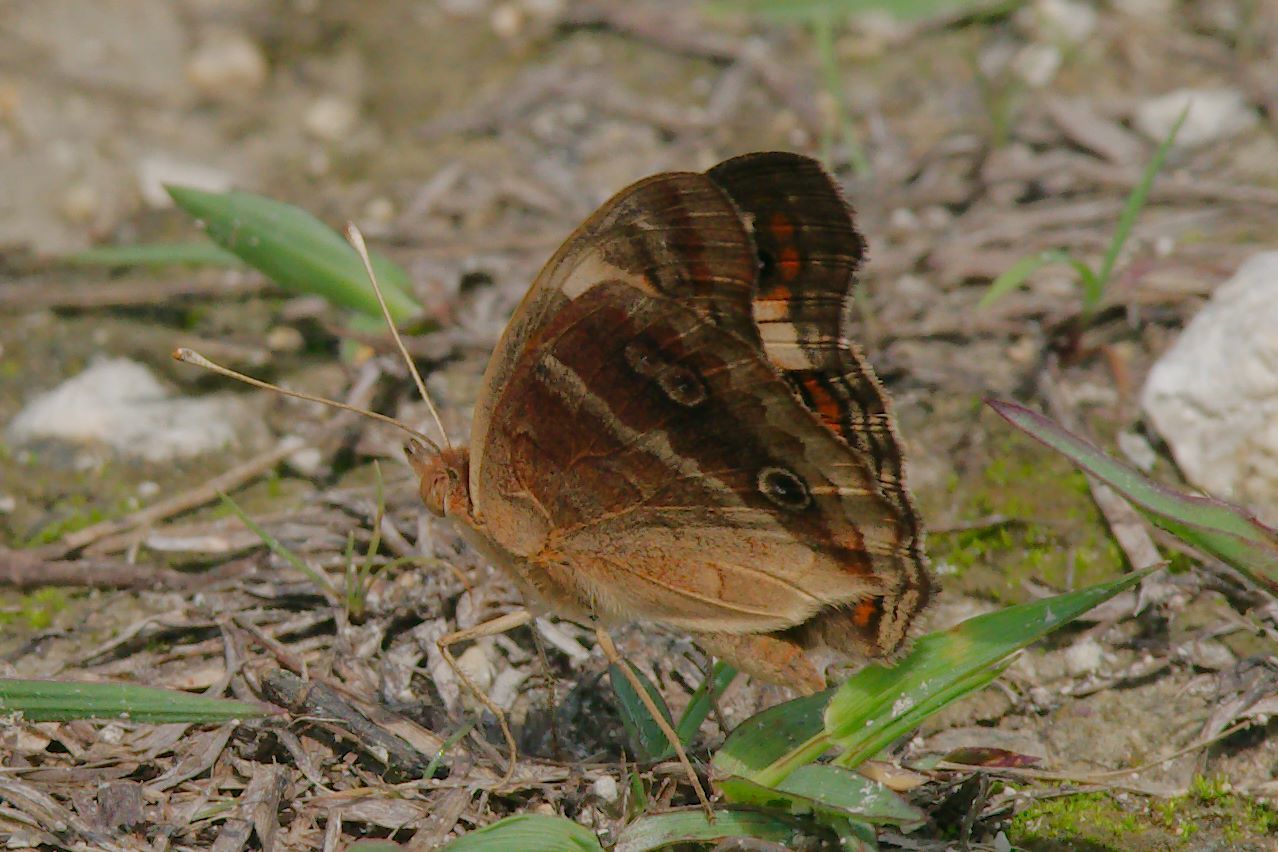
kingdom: Animalia
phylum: Arthropoda
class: Insecta
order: Lepidoptera
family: Nymphalidae
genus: Junonia
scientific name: Junonia lavinia
